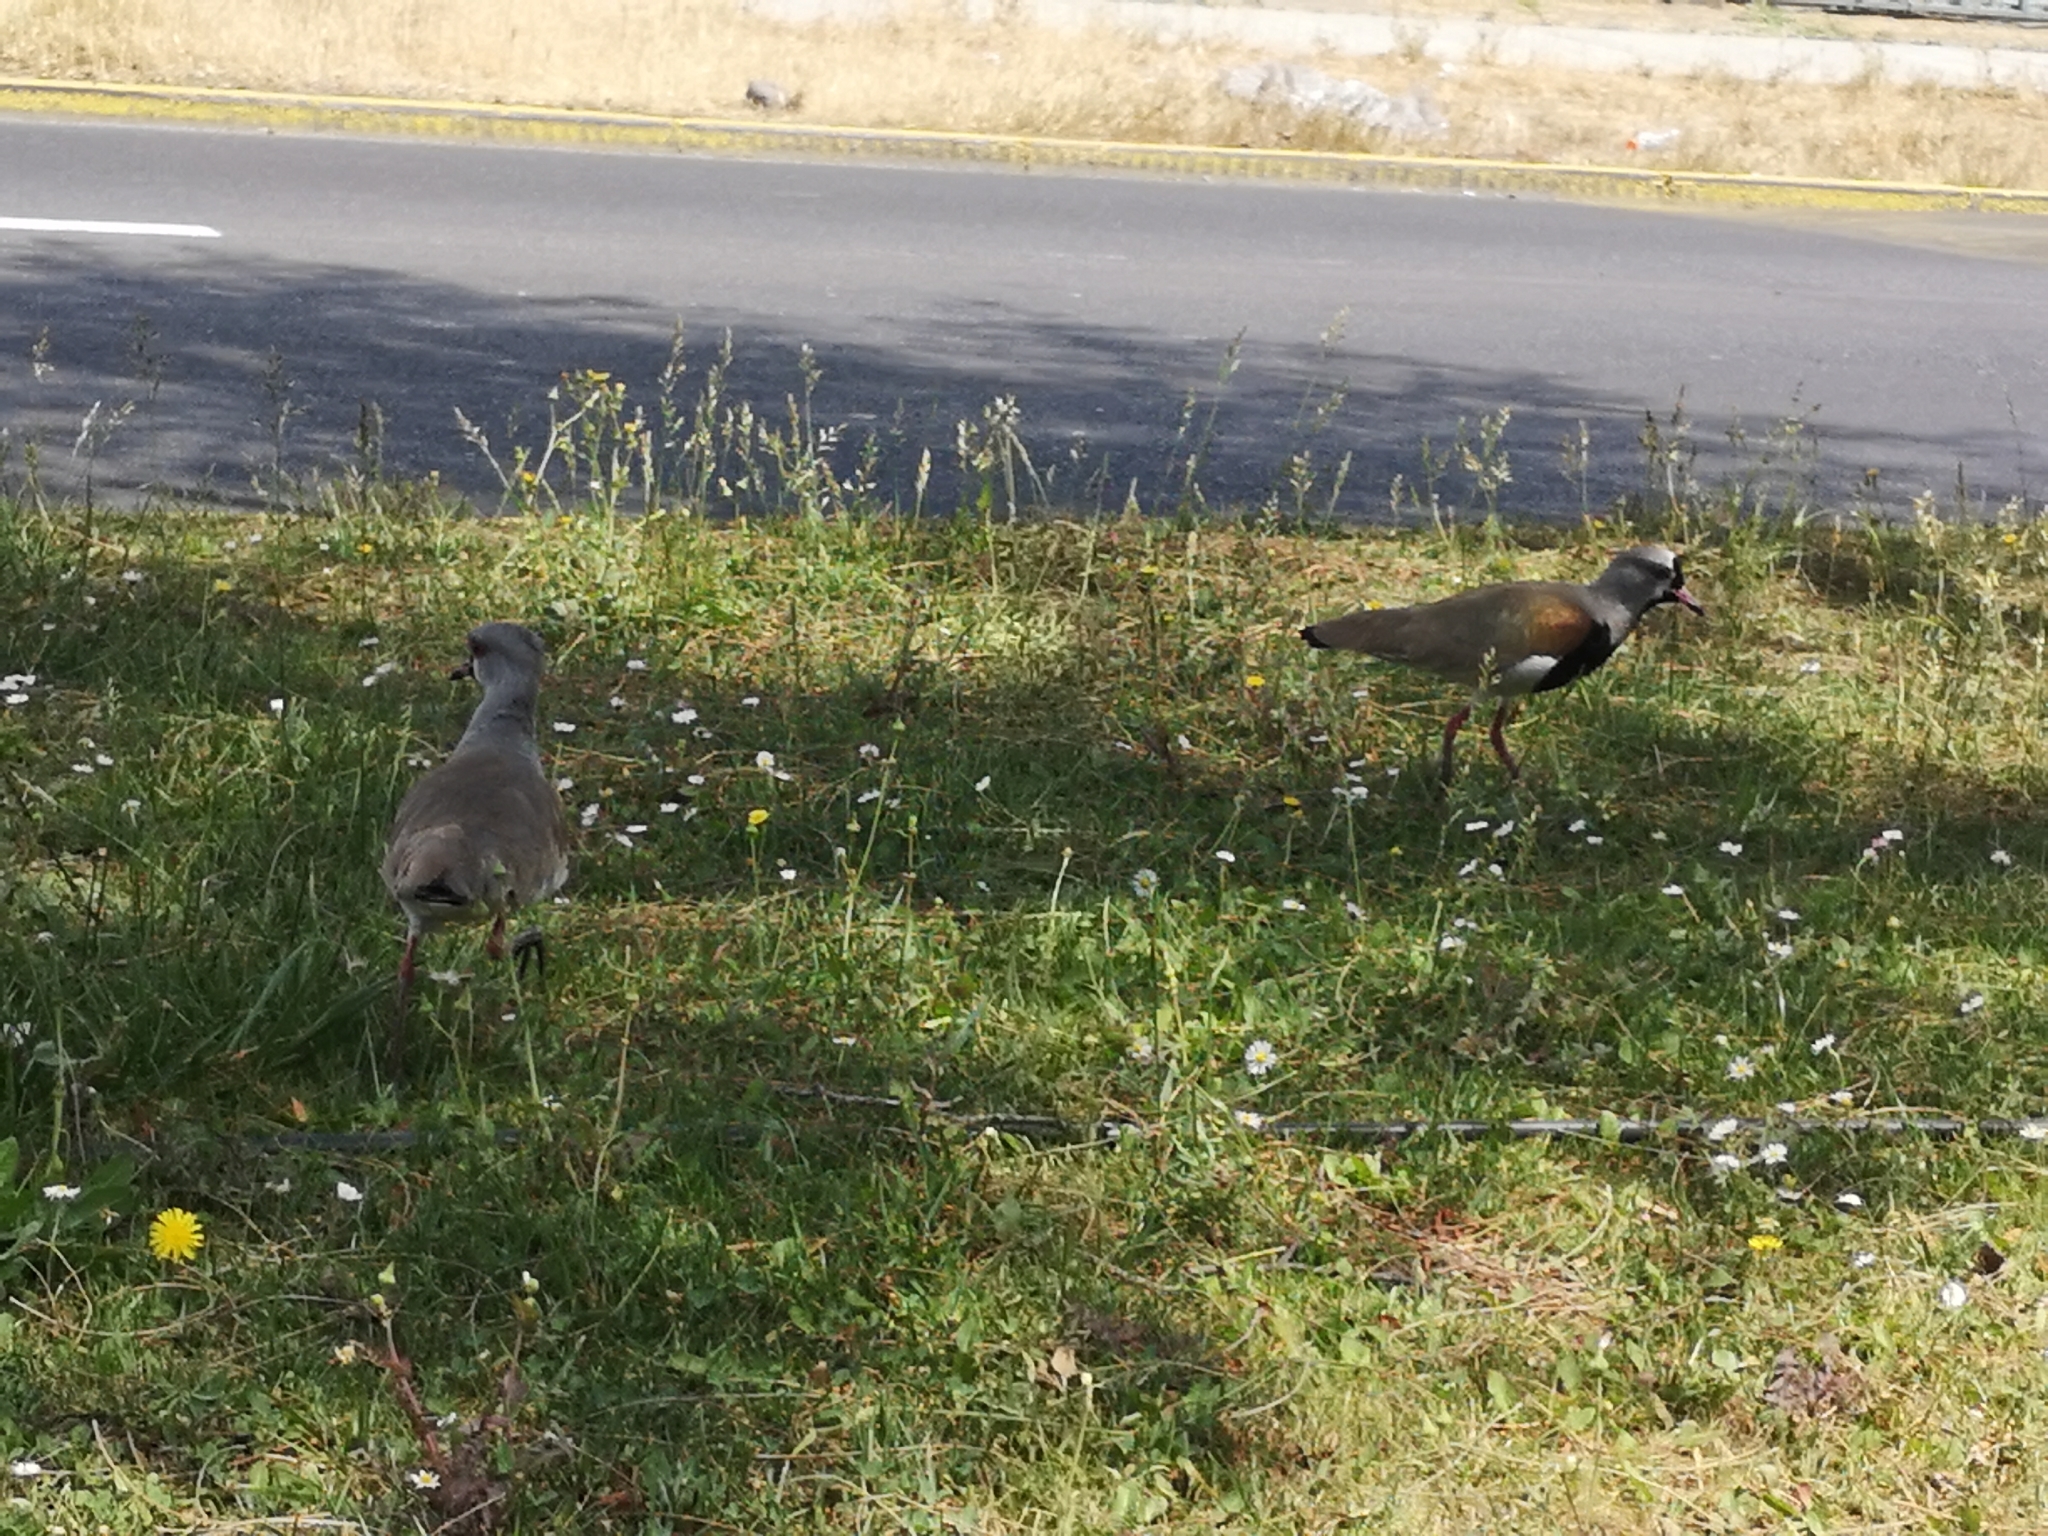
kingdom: Animalia
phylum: Chordata
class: Aves
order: Charadriiformes
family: Charadriidae
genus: Vanellus
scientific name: Vanellus chilensis
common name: Southern lapwing
